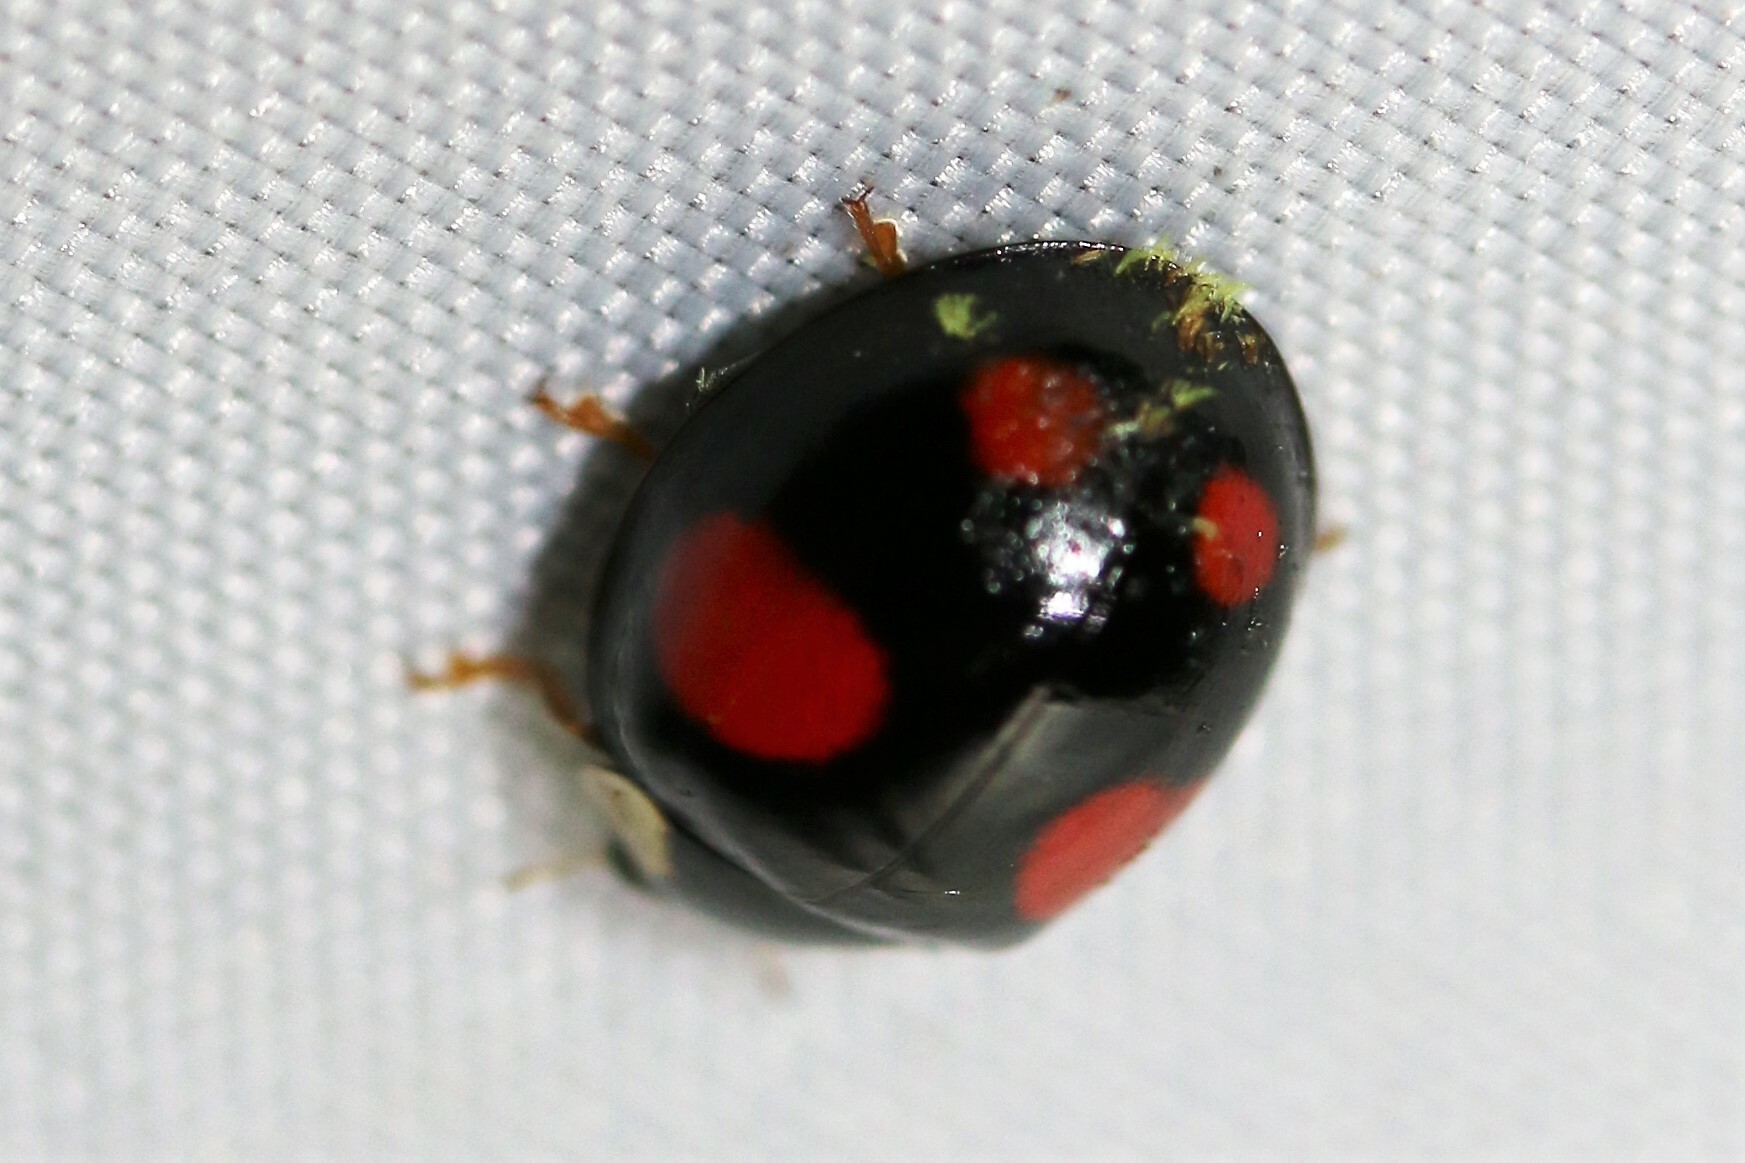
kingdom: Animalia
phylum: Arthropoda
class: Insecta
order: Coleoptera
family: Coccinellidae
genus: Harmonia
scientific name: Harmonia axyridis
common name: Harlequin ladybird
